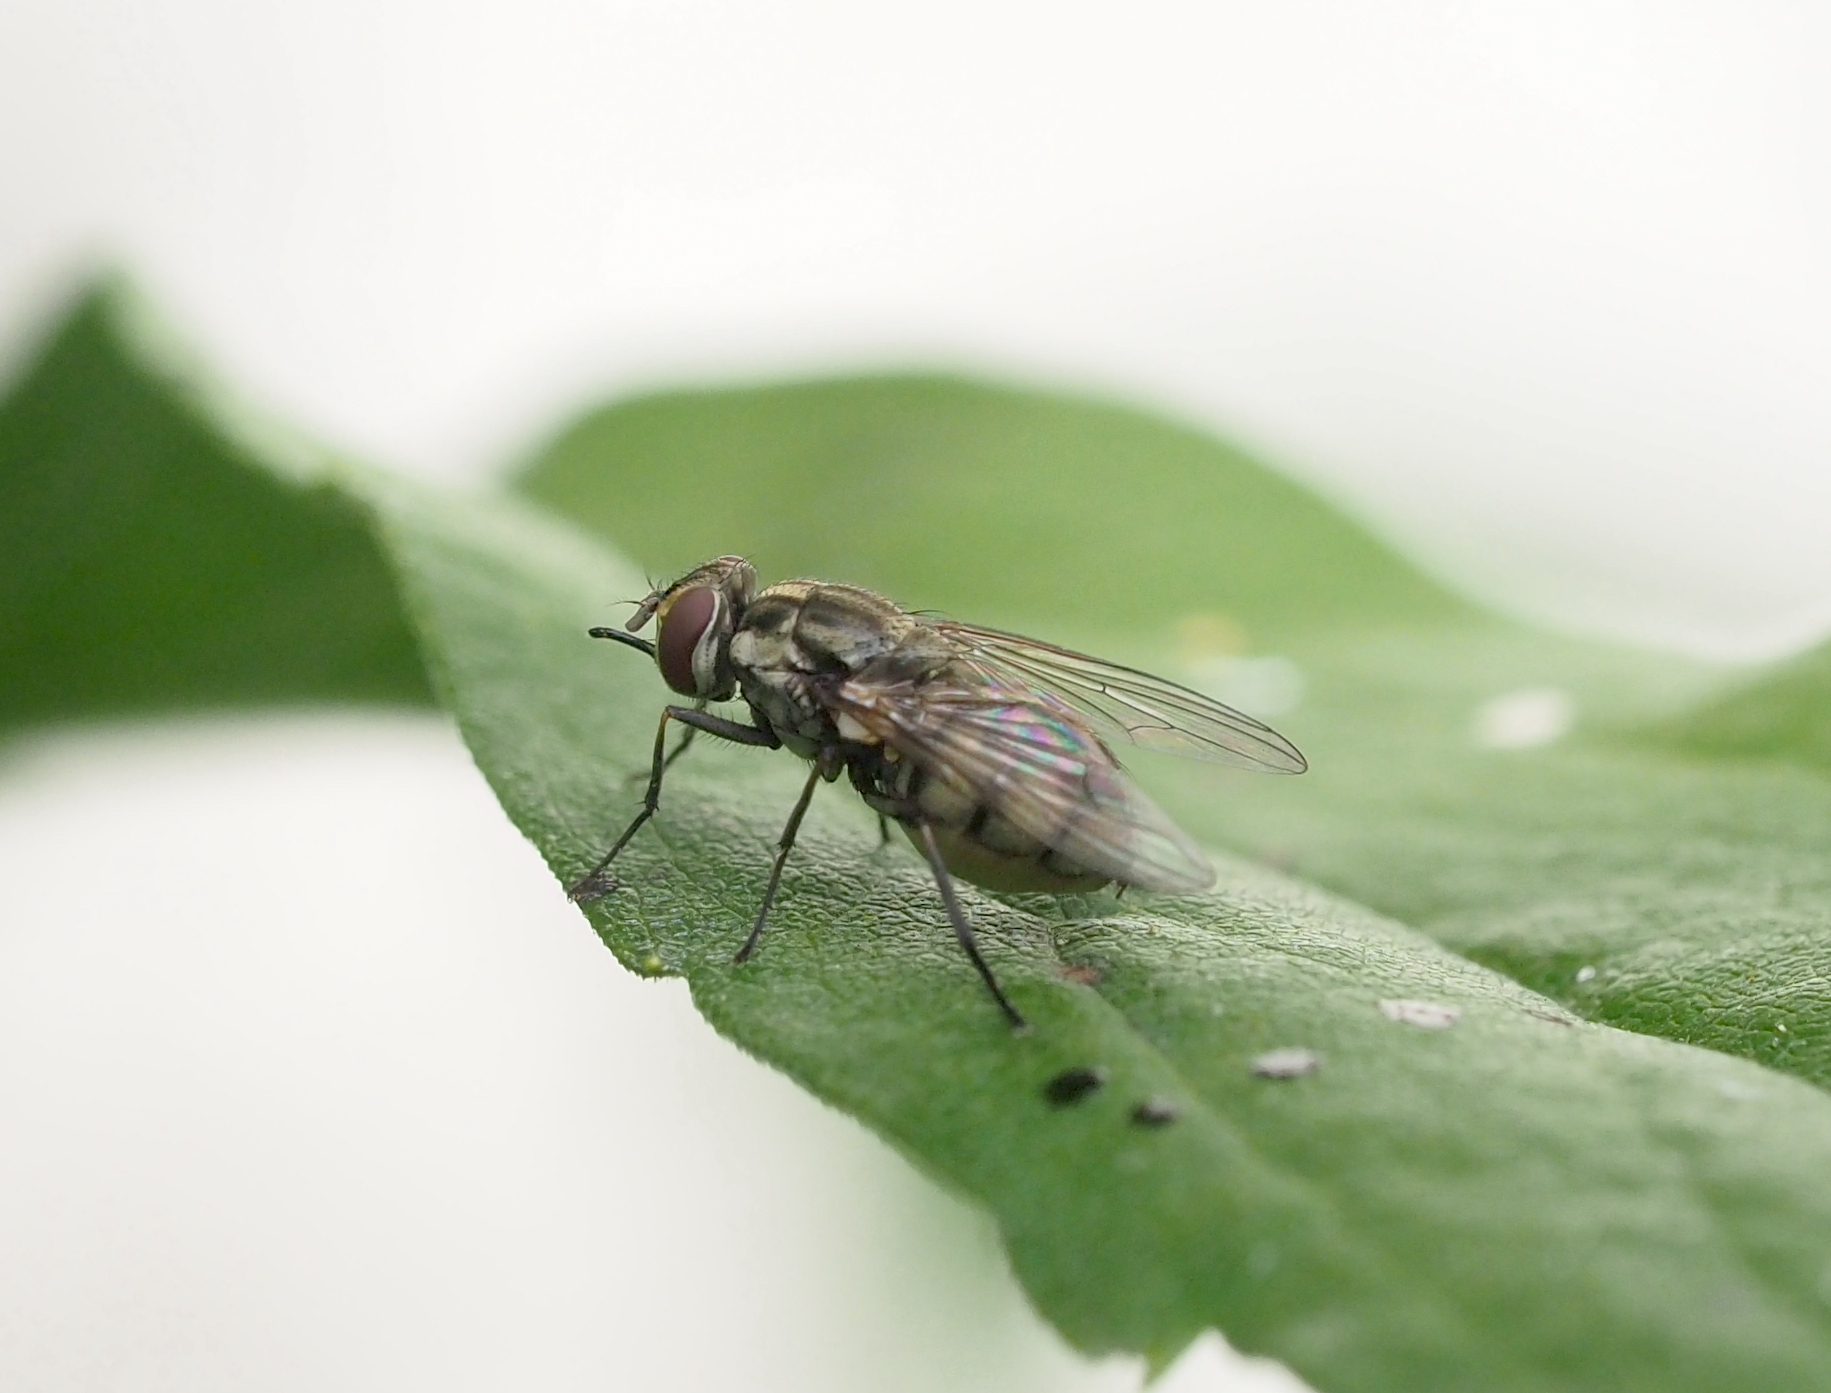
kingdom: Animalia
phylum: Arthropoda
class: Insecta
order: Diptera
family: Muscidae
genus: Stomoxys
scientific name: Stomoxys calcitrans
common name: Stable fly
